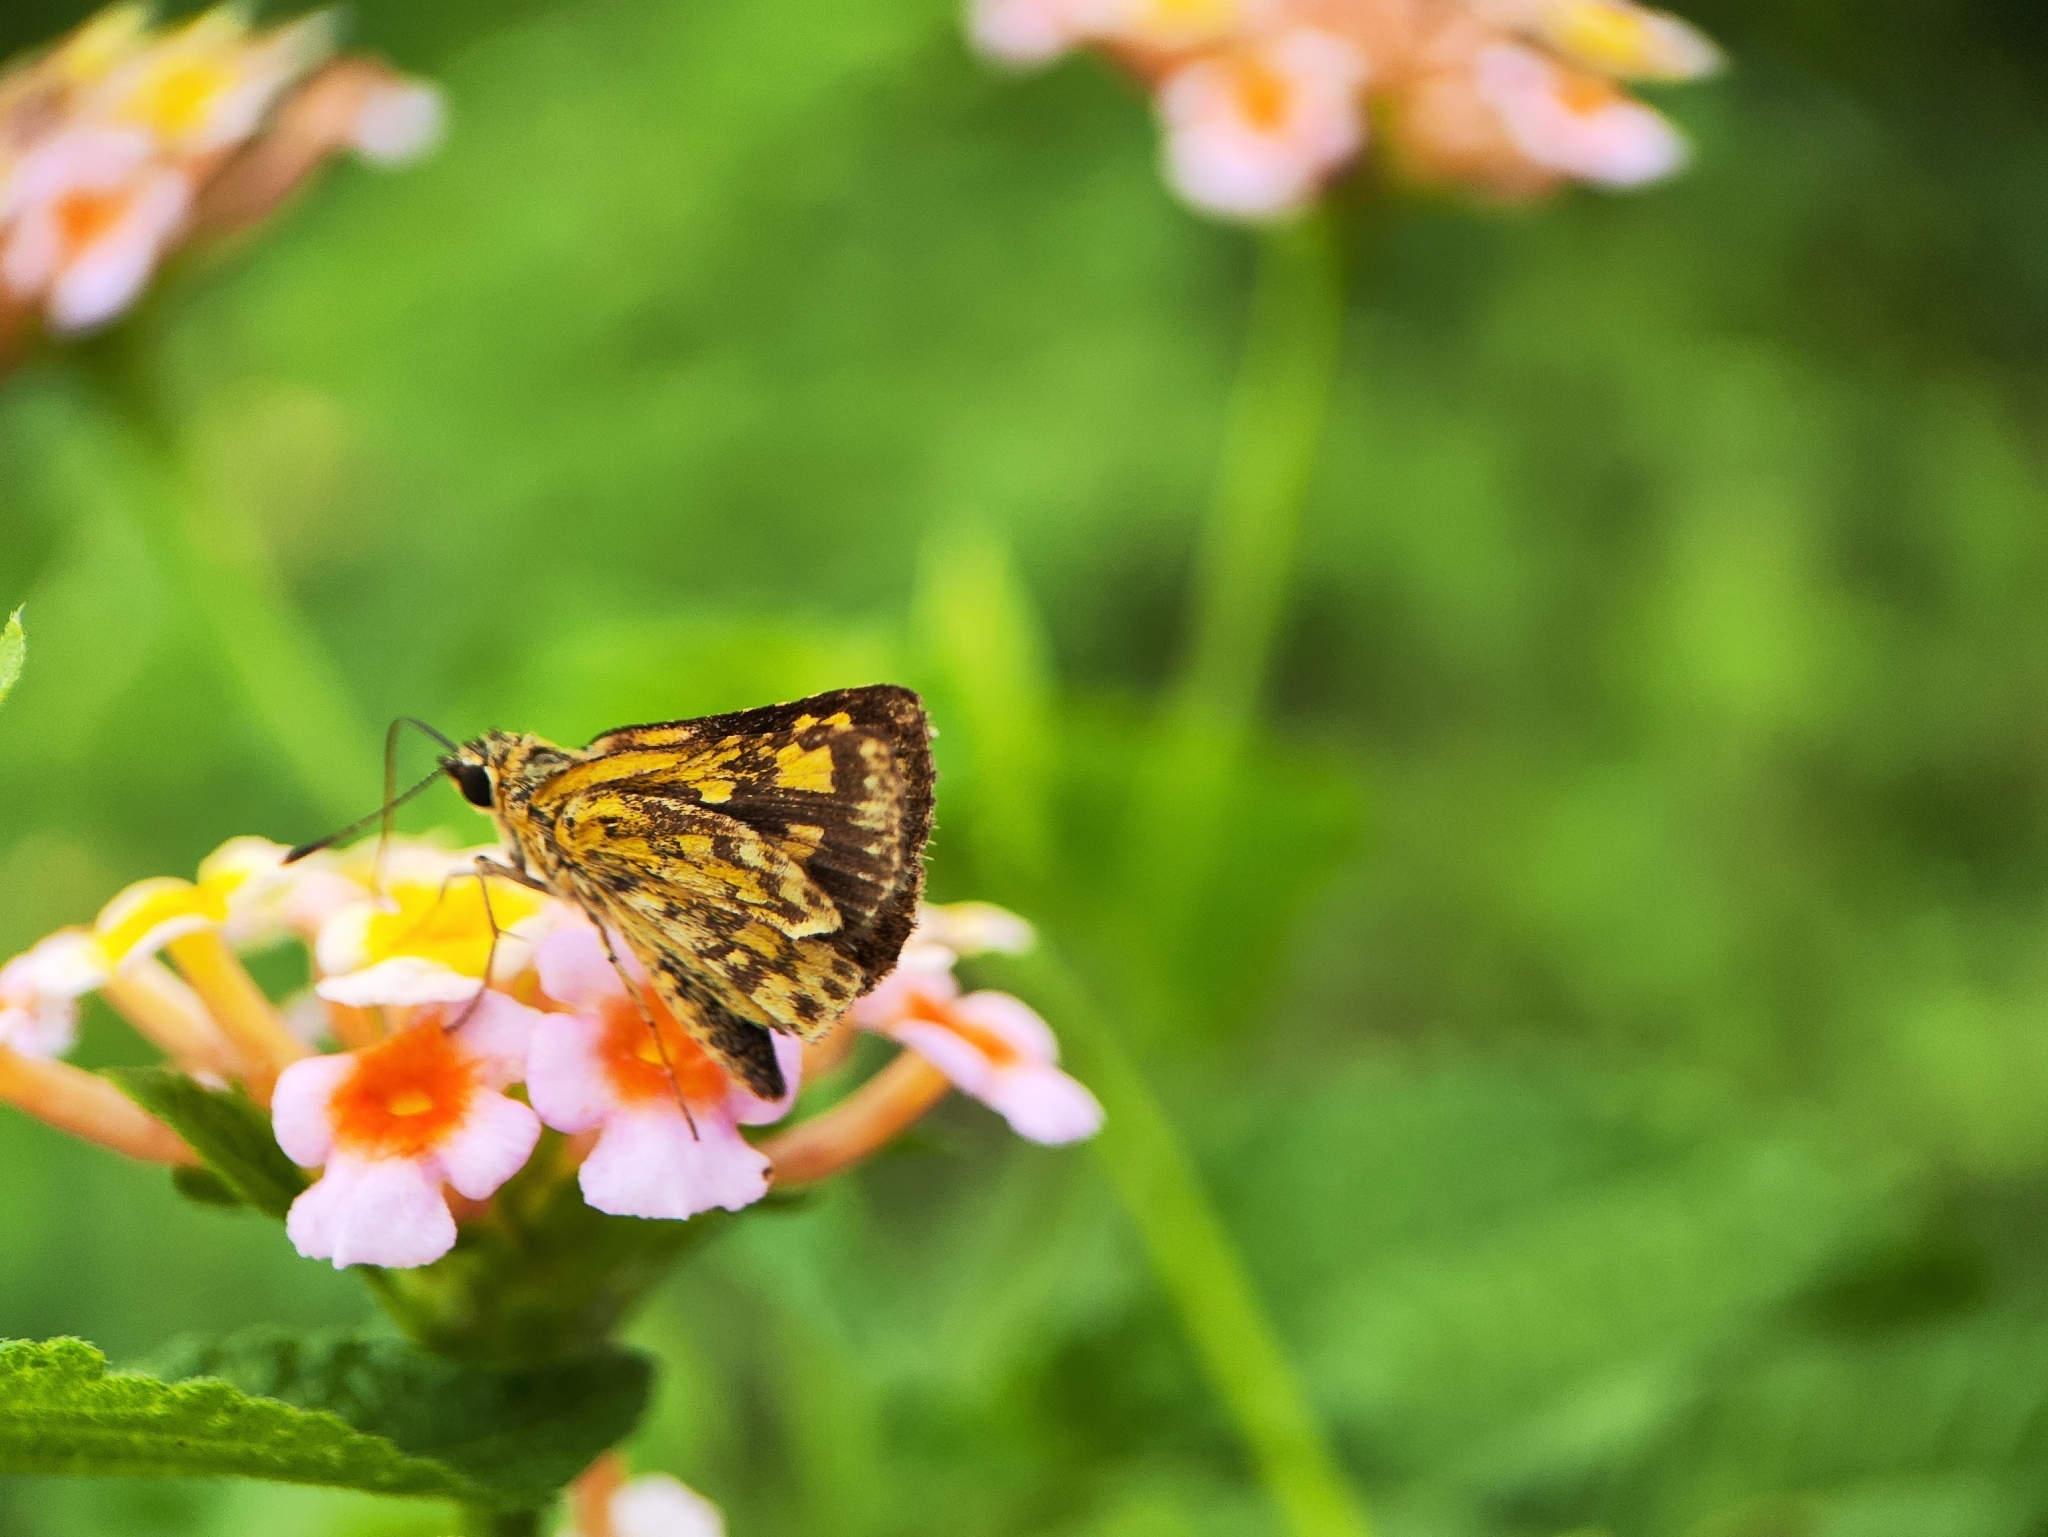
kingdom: Animalia
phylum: Arthropoda
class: Insecta
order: Lepidoptera
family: Hesperiidae
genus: Ampittia
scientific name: Ampittia dioscorides
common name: Common bush hopper
